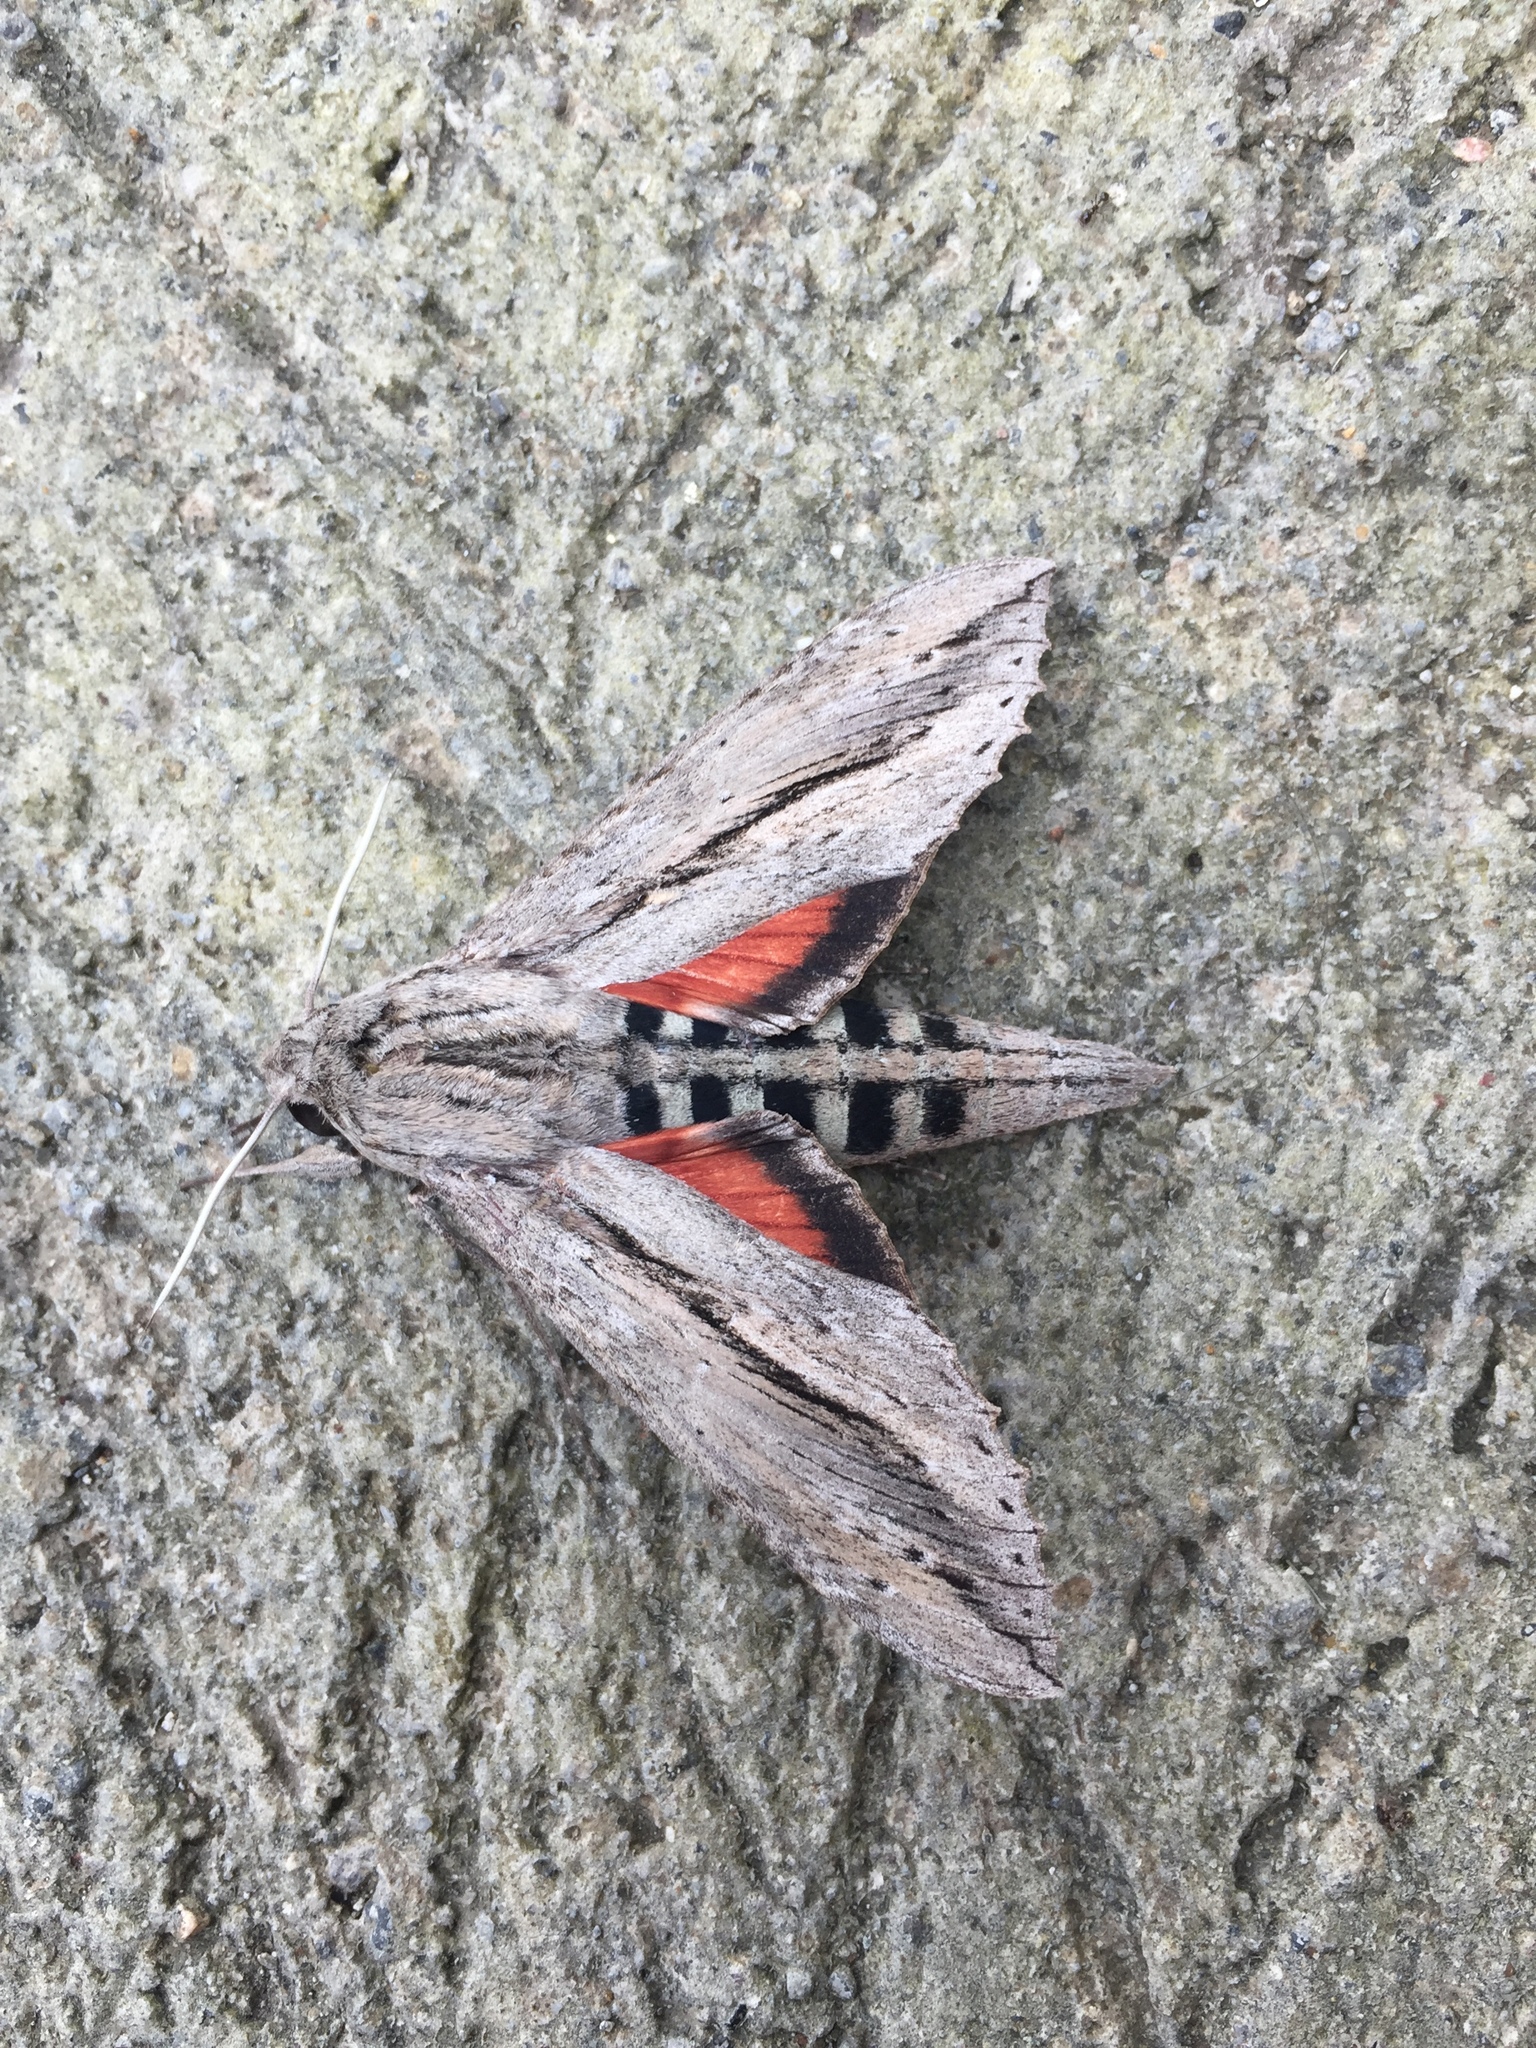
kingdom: Animalia
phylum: Arthropoda
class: Insecta
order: Lepidoptera
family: Sphingidae
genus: Erinnyis
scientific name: Erinnyis ello
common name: Ello sphinx
